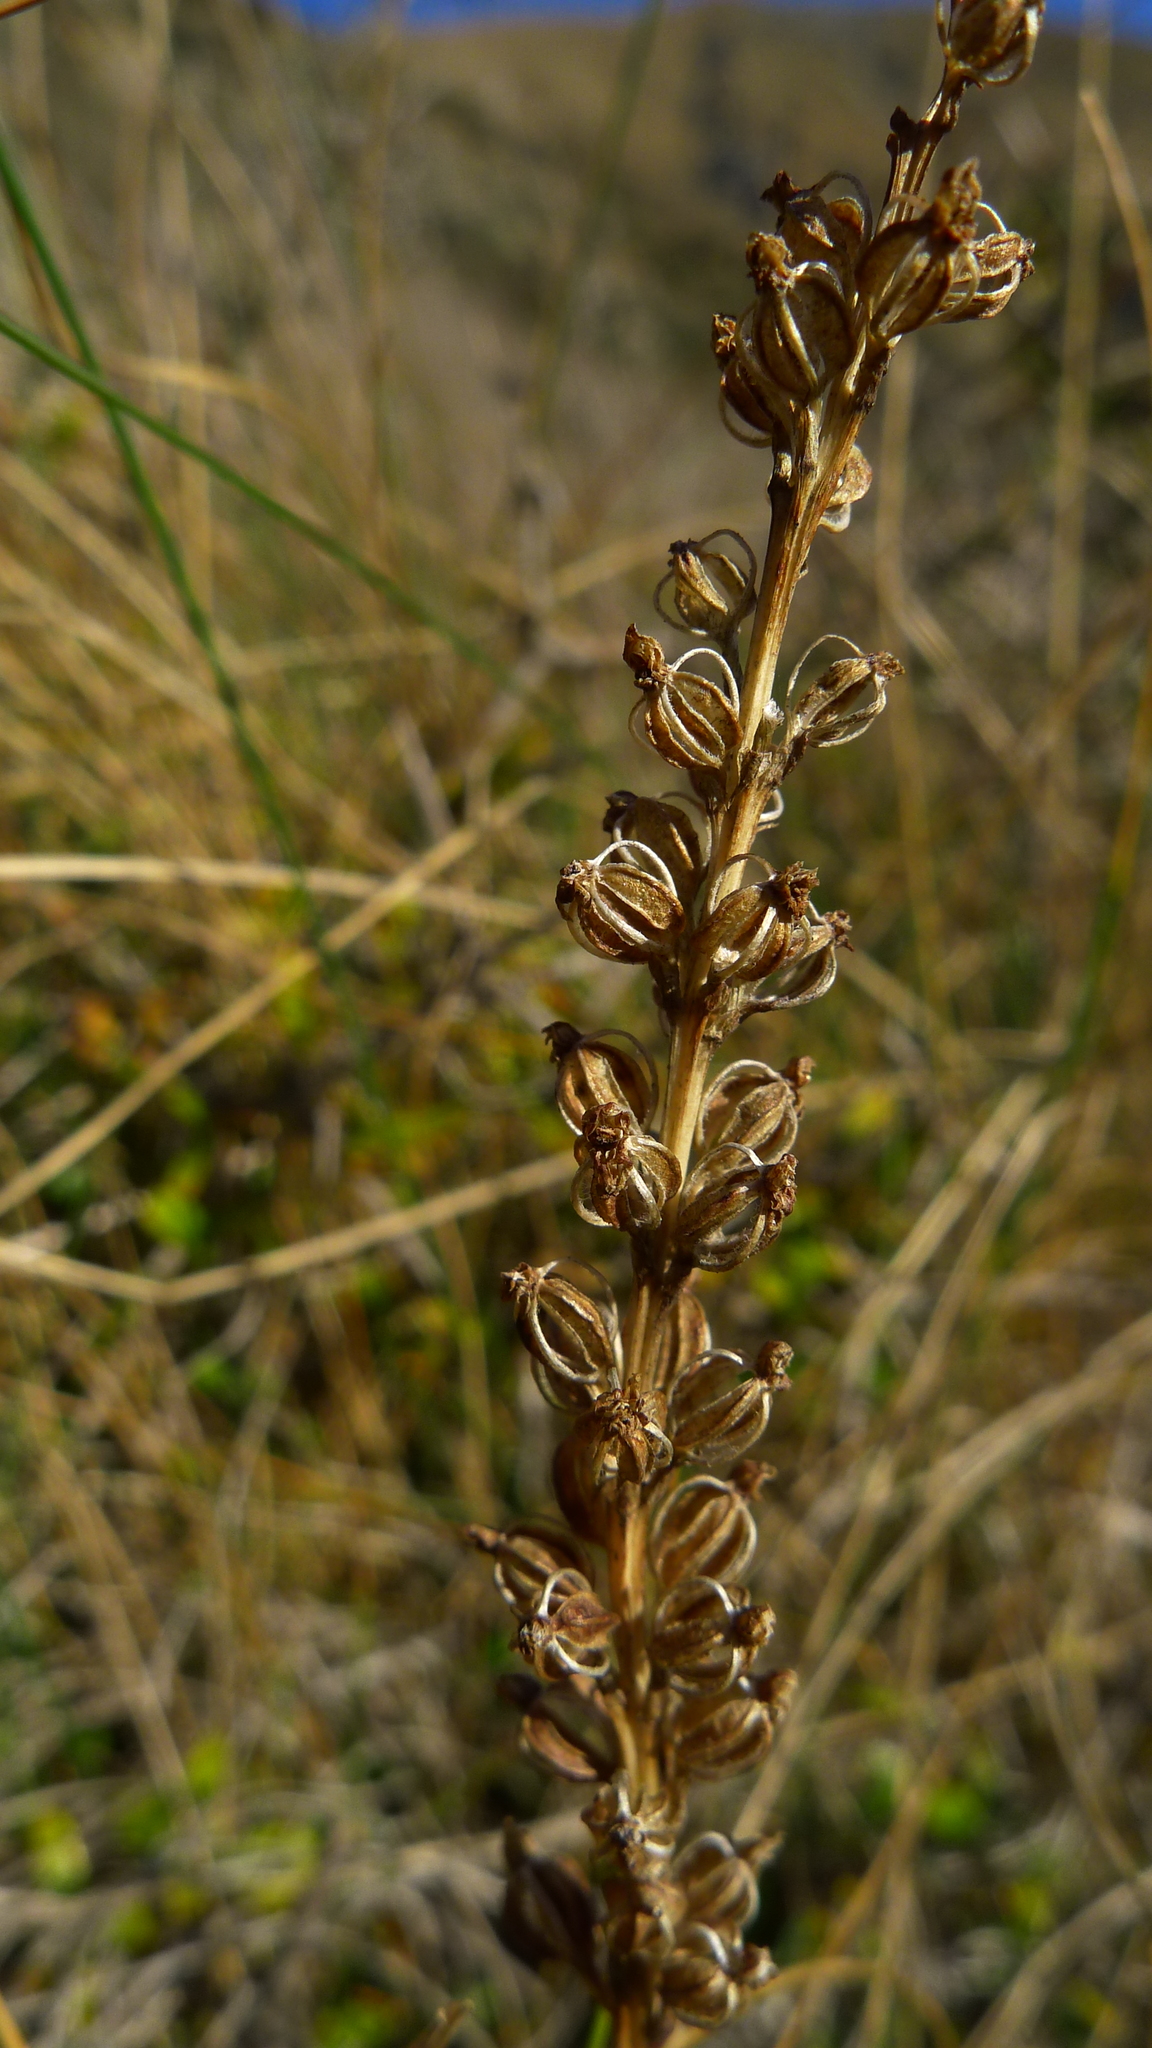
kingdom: Plantae
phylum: Tracheophyta
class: Liliopsida
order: Asparagales
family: Orchidaceae
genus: Microtis
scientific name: Microtis unifolia
